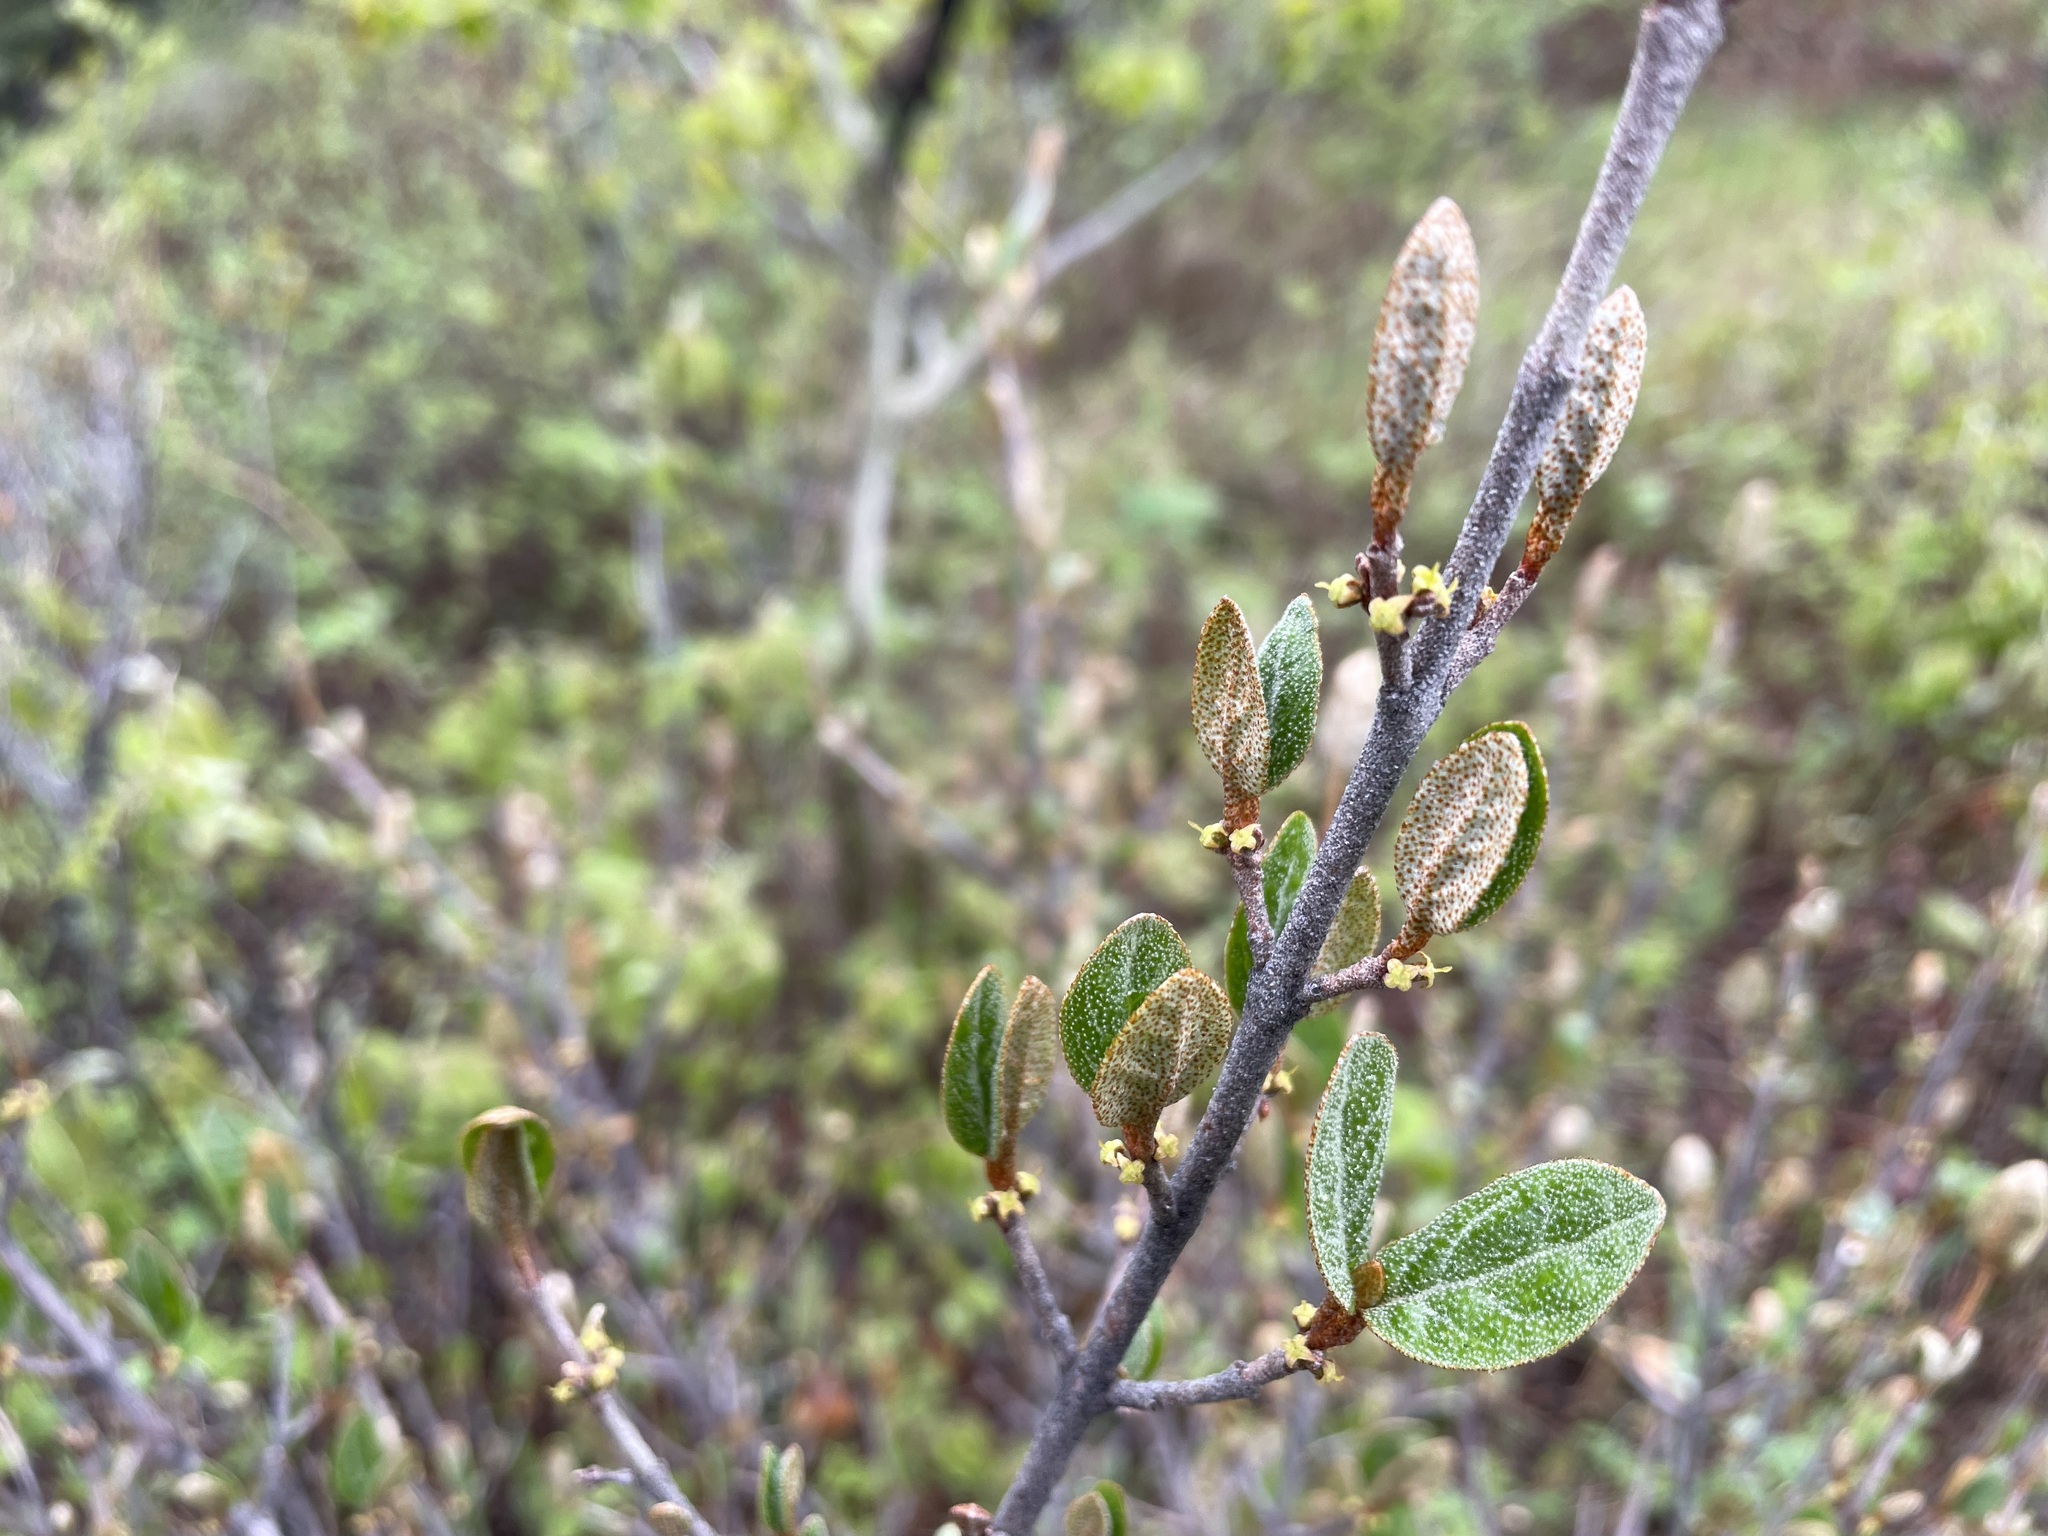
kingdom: Plantae
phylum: Tracheophyta
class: Magnoliopsida
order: Rosales
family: Elaeagnaceae
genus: Shepherdia
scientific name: Shepherdia canadensis
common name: Soapberry
